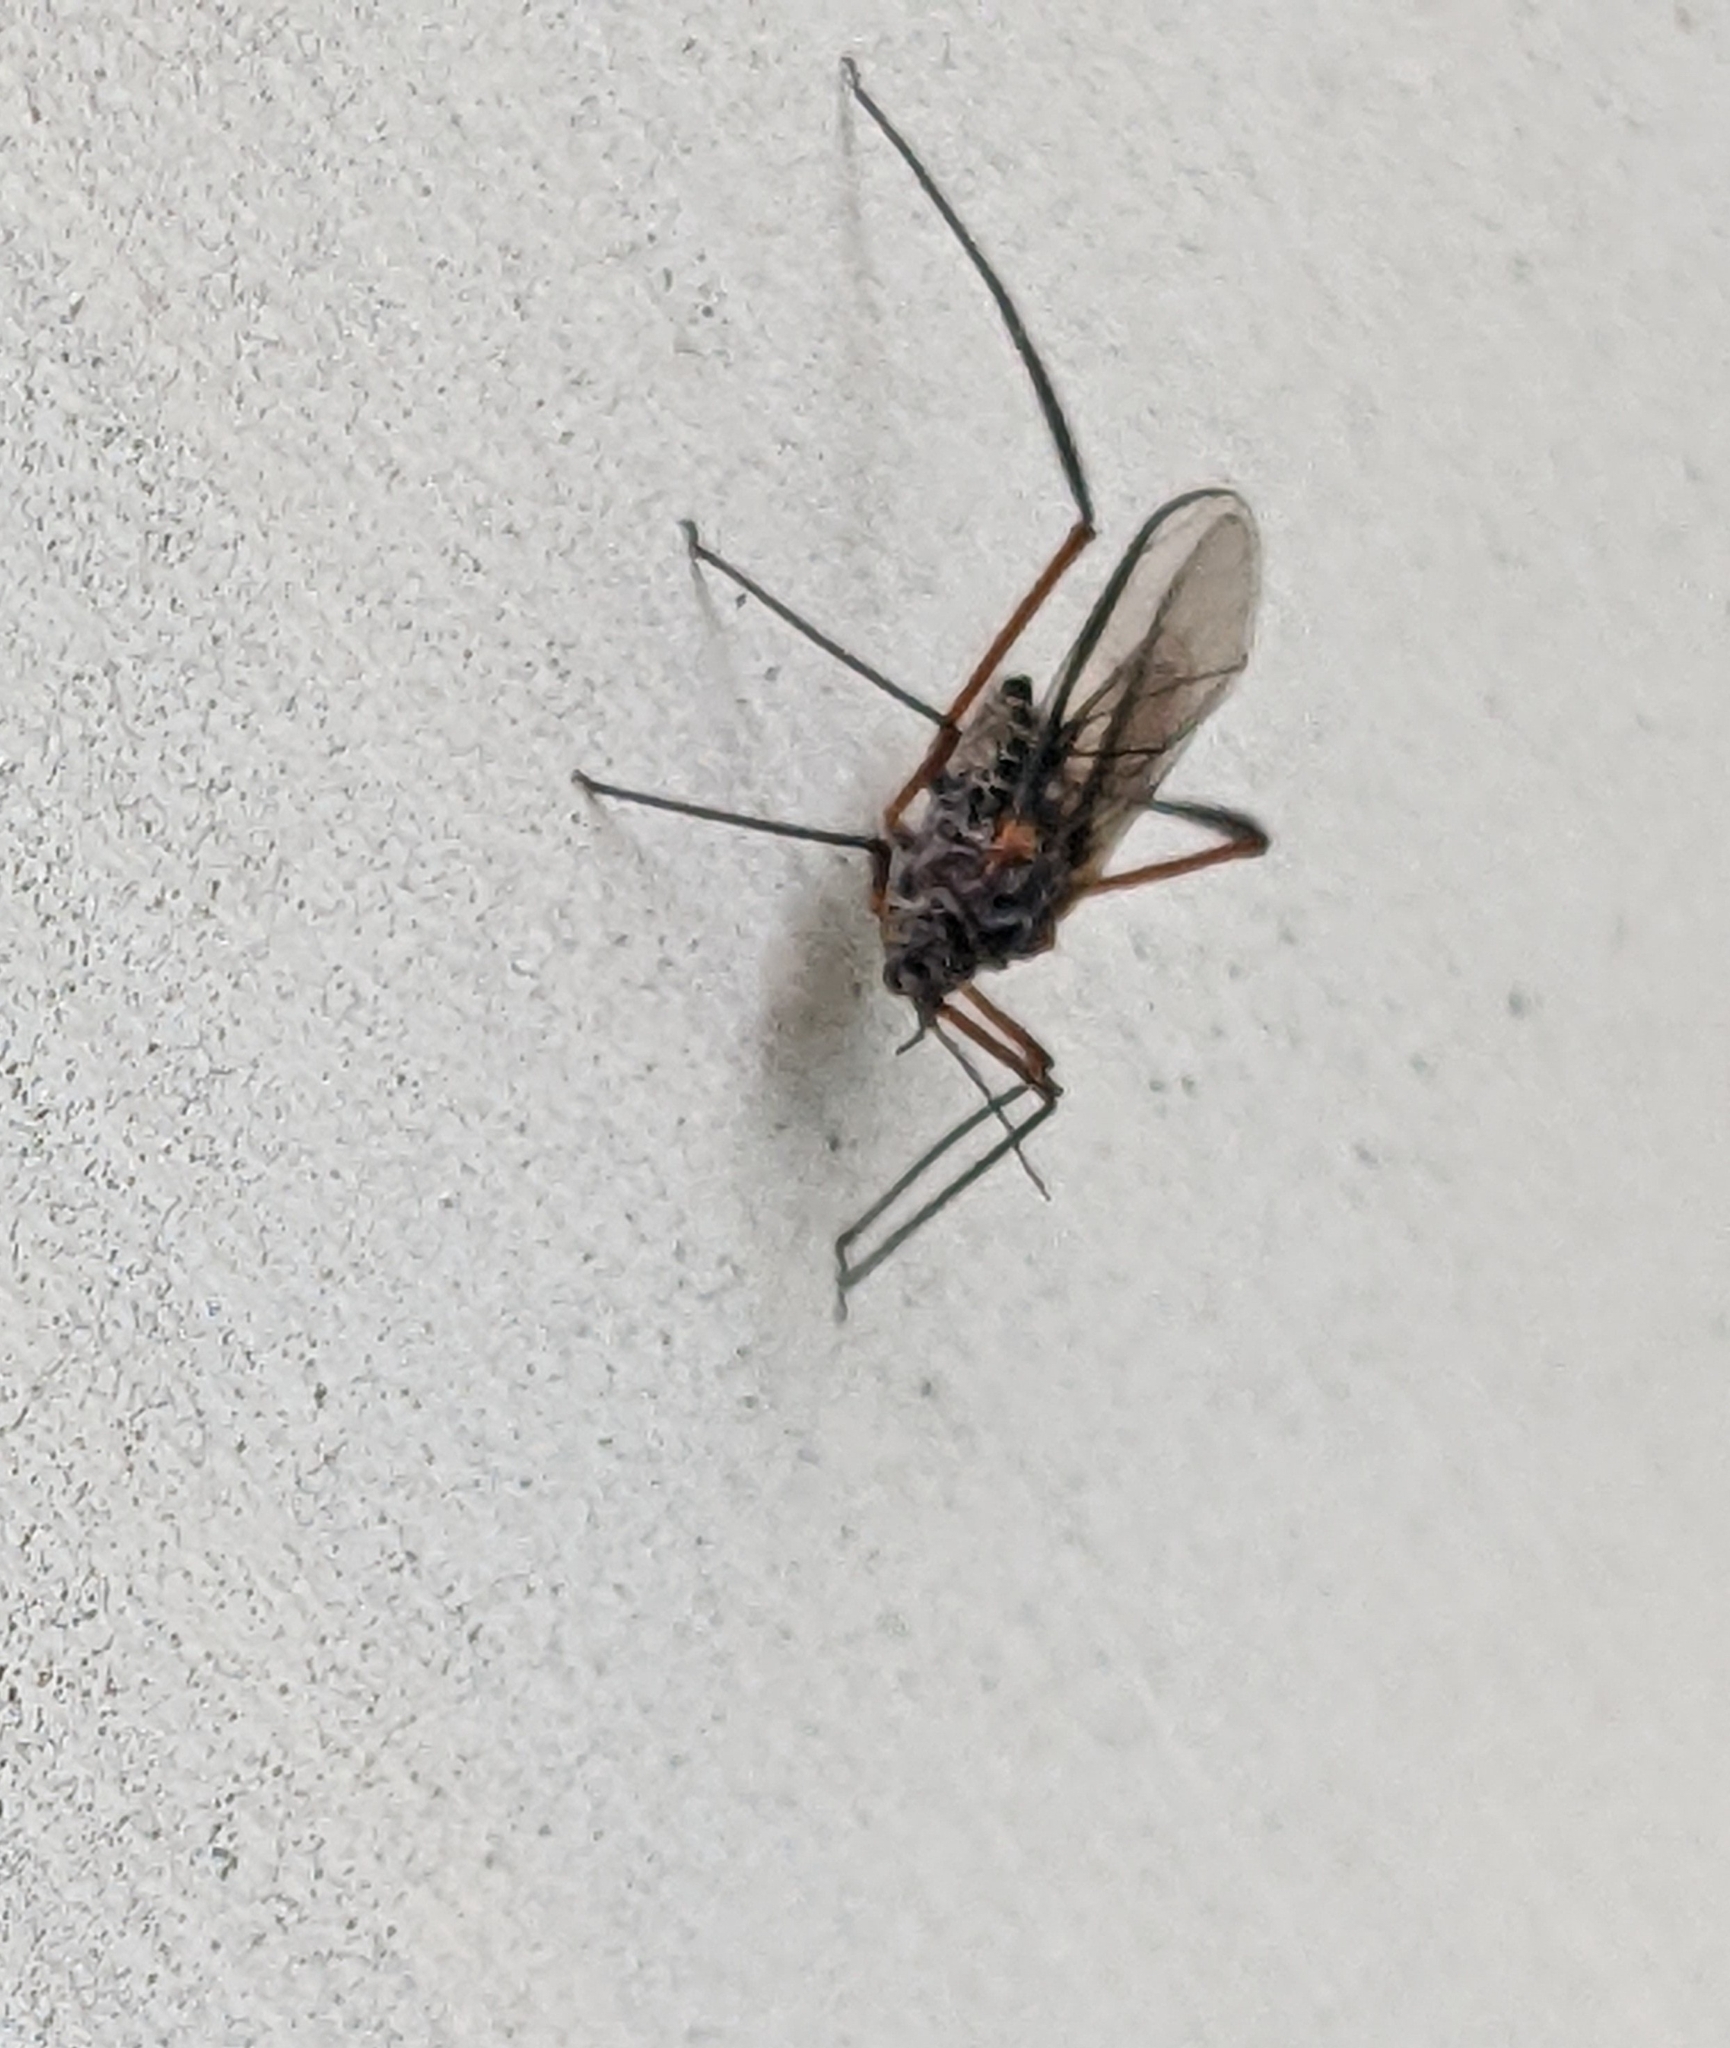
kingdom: Animalia
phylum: Arthropoda
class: Insecta
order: Hemiptera
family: Aphididae
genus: Longistigma
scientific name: Longistigma caryae
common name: Giant bark aphid
